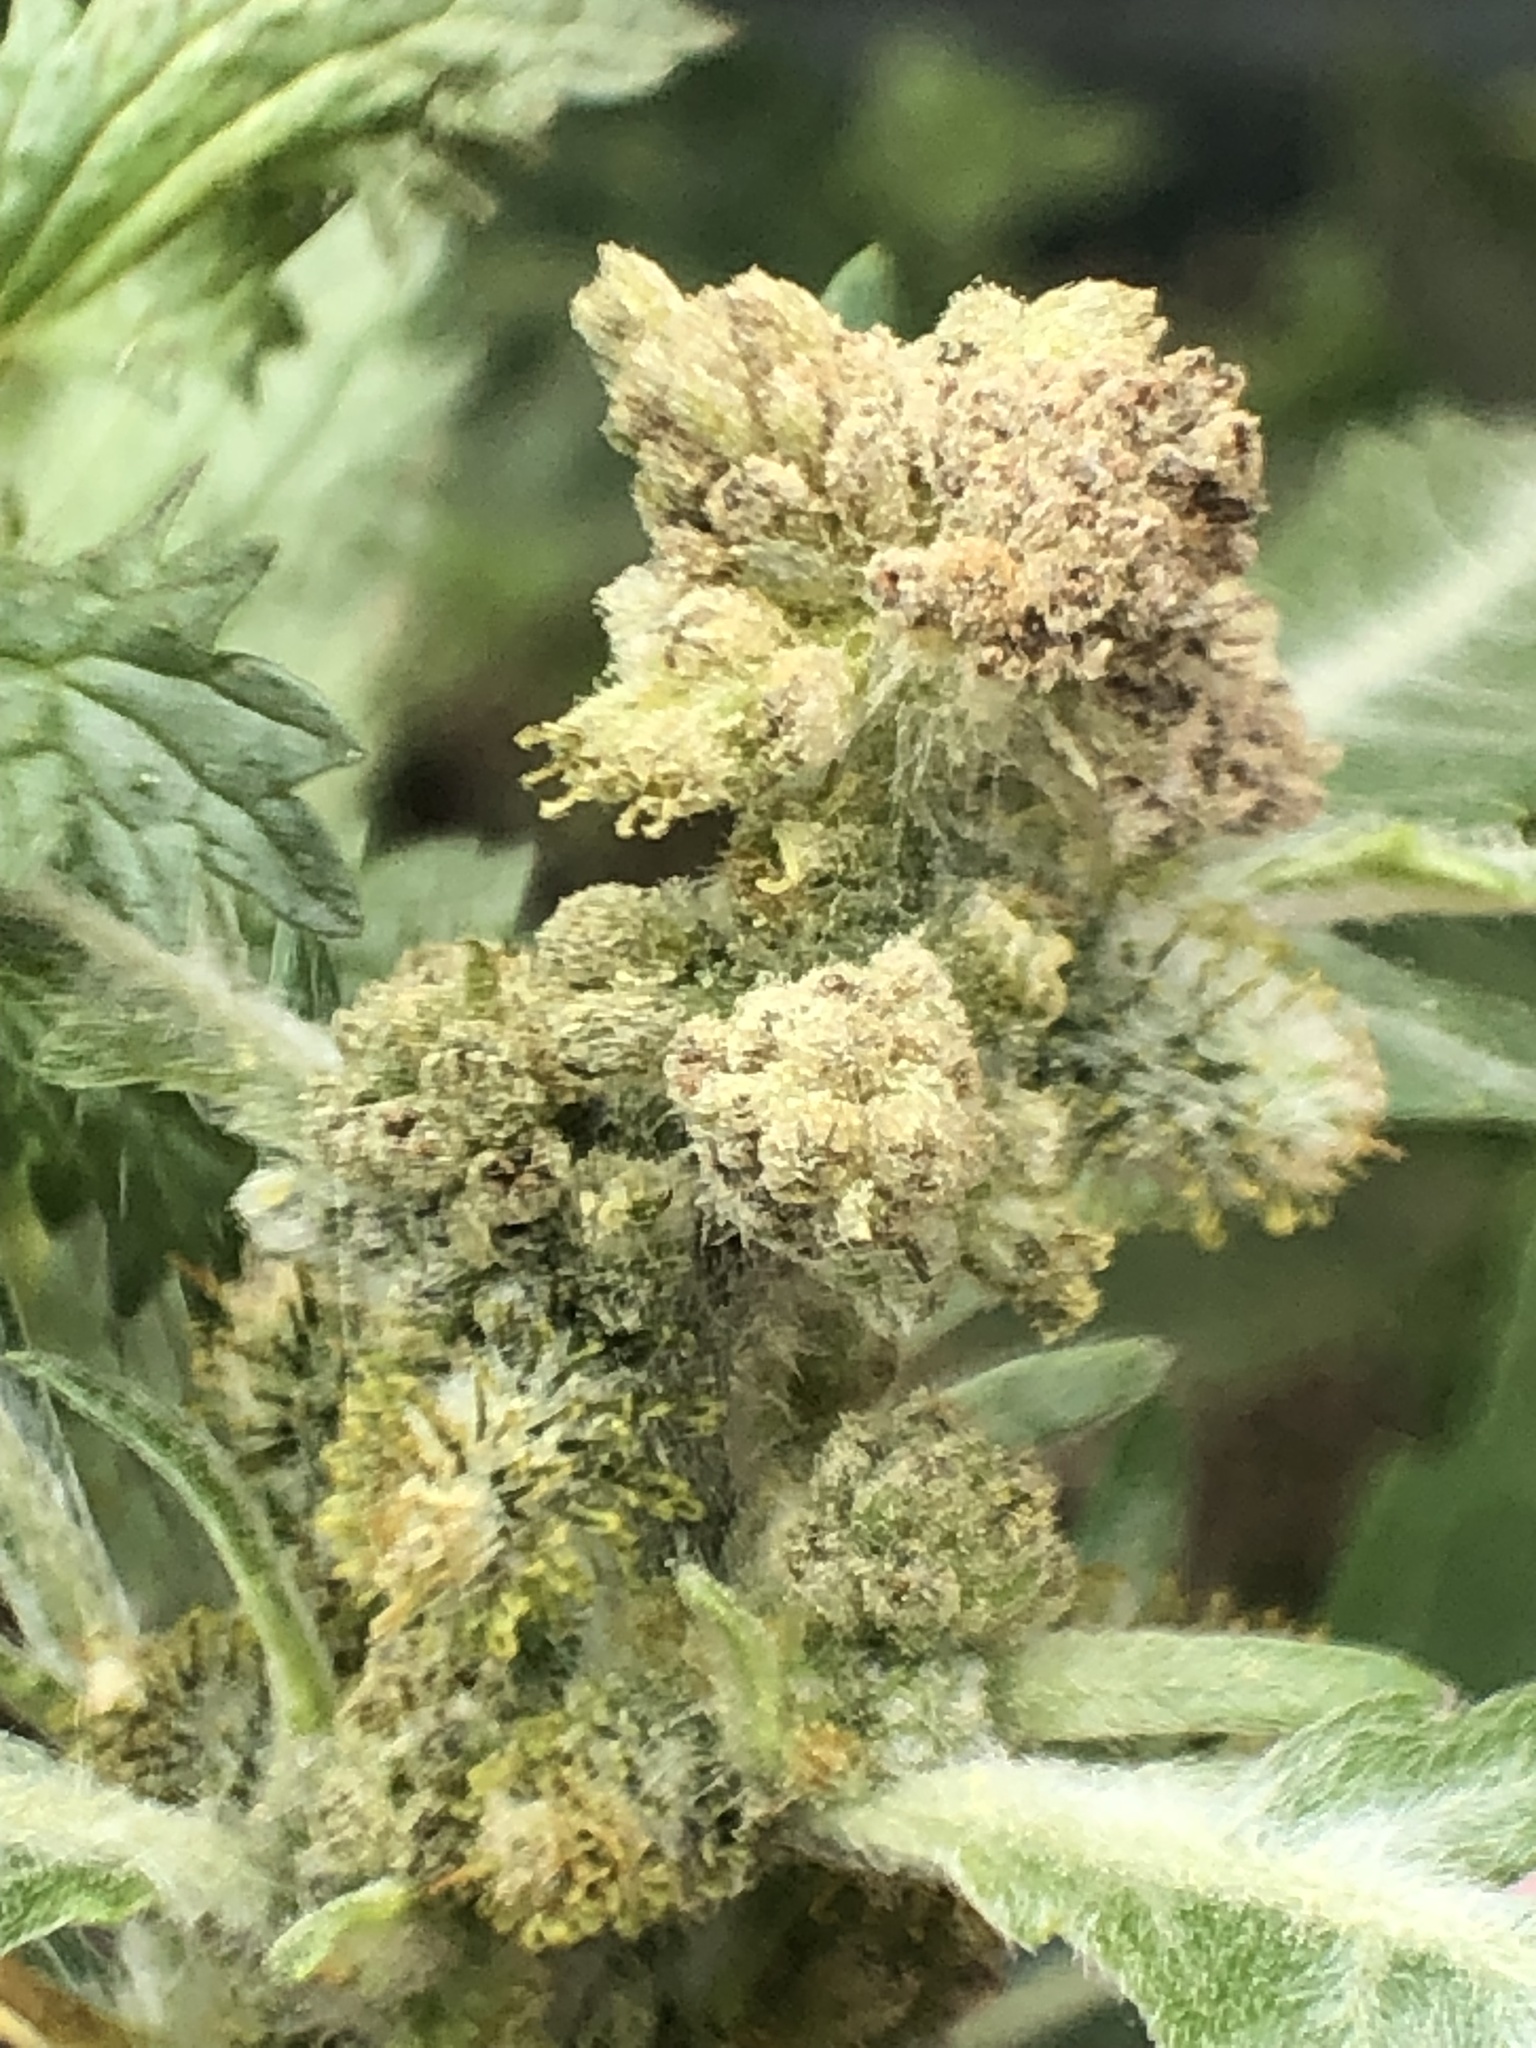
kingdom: Plantae
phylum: Tracheophyta
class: Magnoliopsida
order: Asterales
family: Asteraceae
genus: Xanthium
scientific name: Xanthium spinosum
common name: Spiny cocklebur
